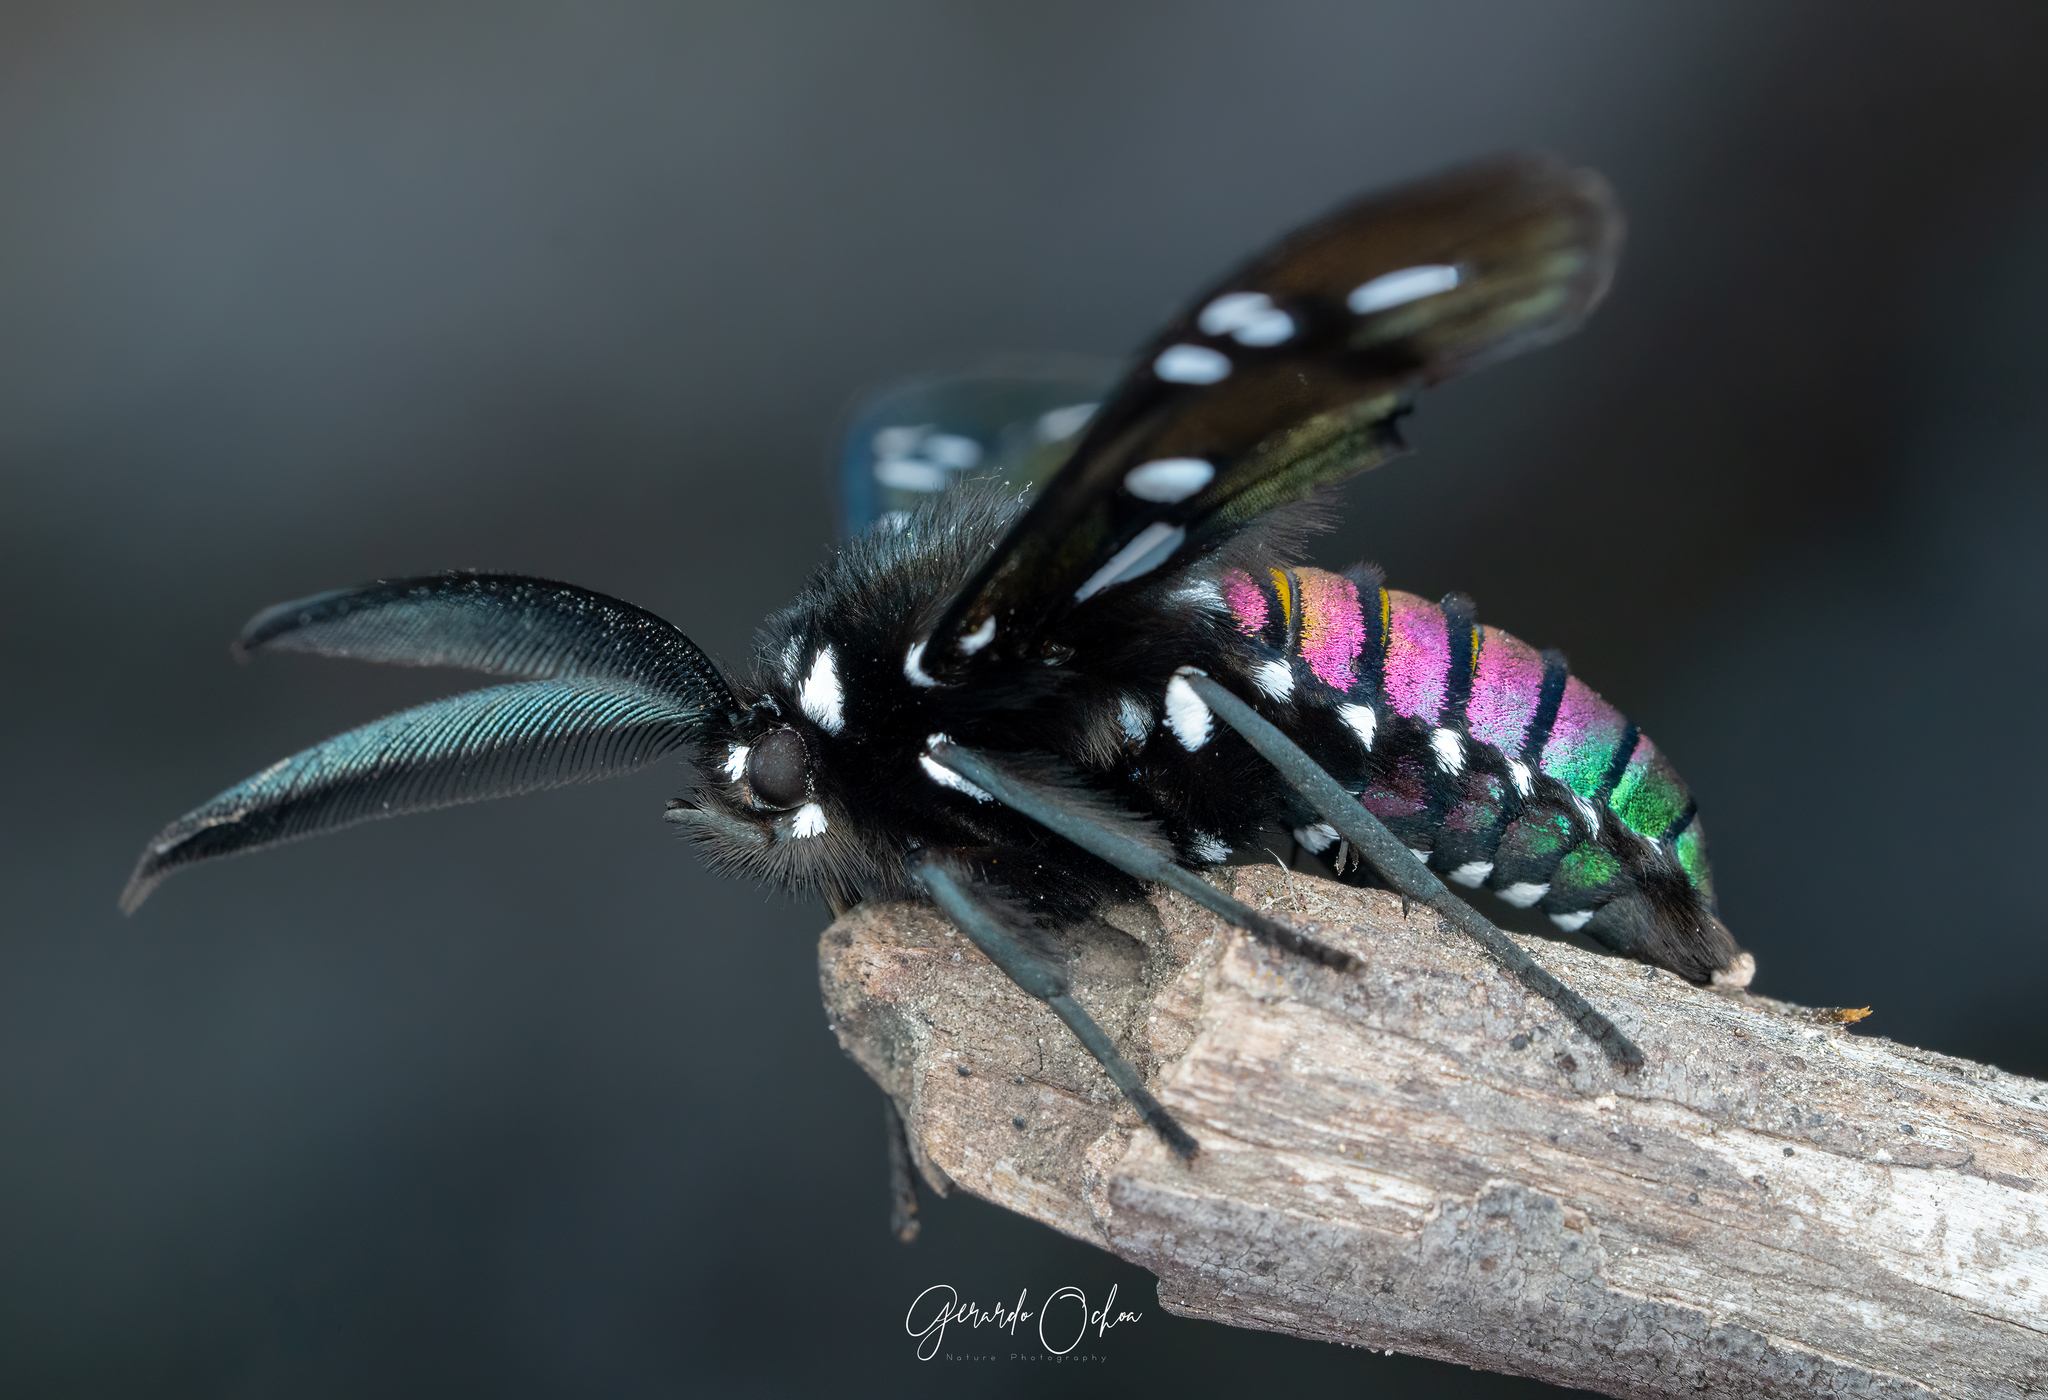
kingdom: Animalia
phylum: Arthropoda
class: Insecta
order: Lepidoptera
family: Erebidae
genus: Chrysocale
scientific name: Chrysocale principalis
